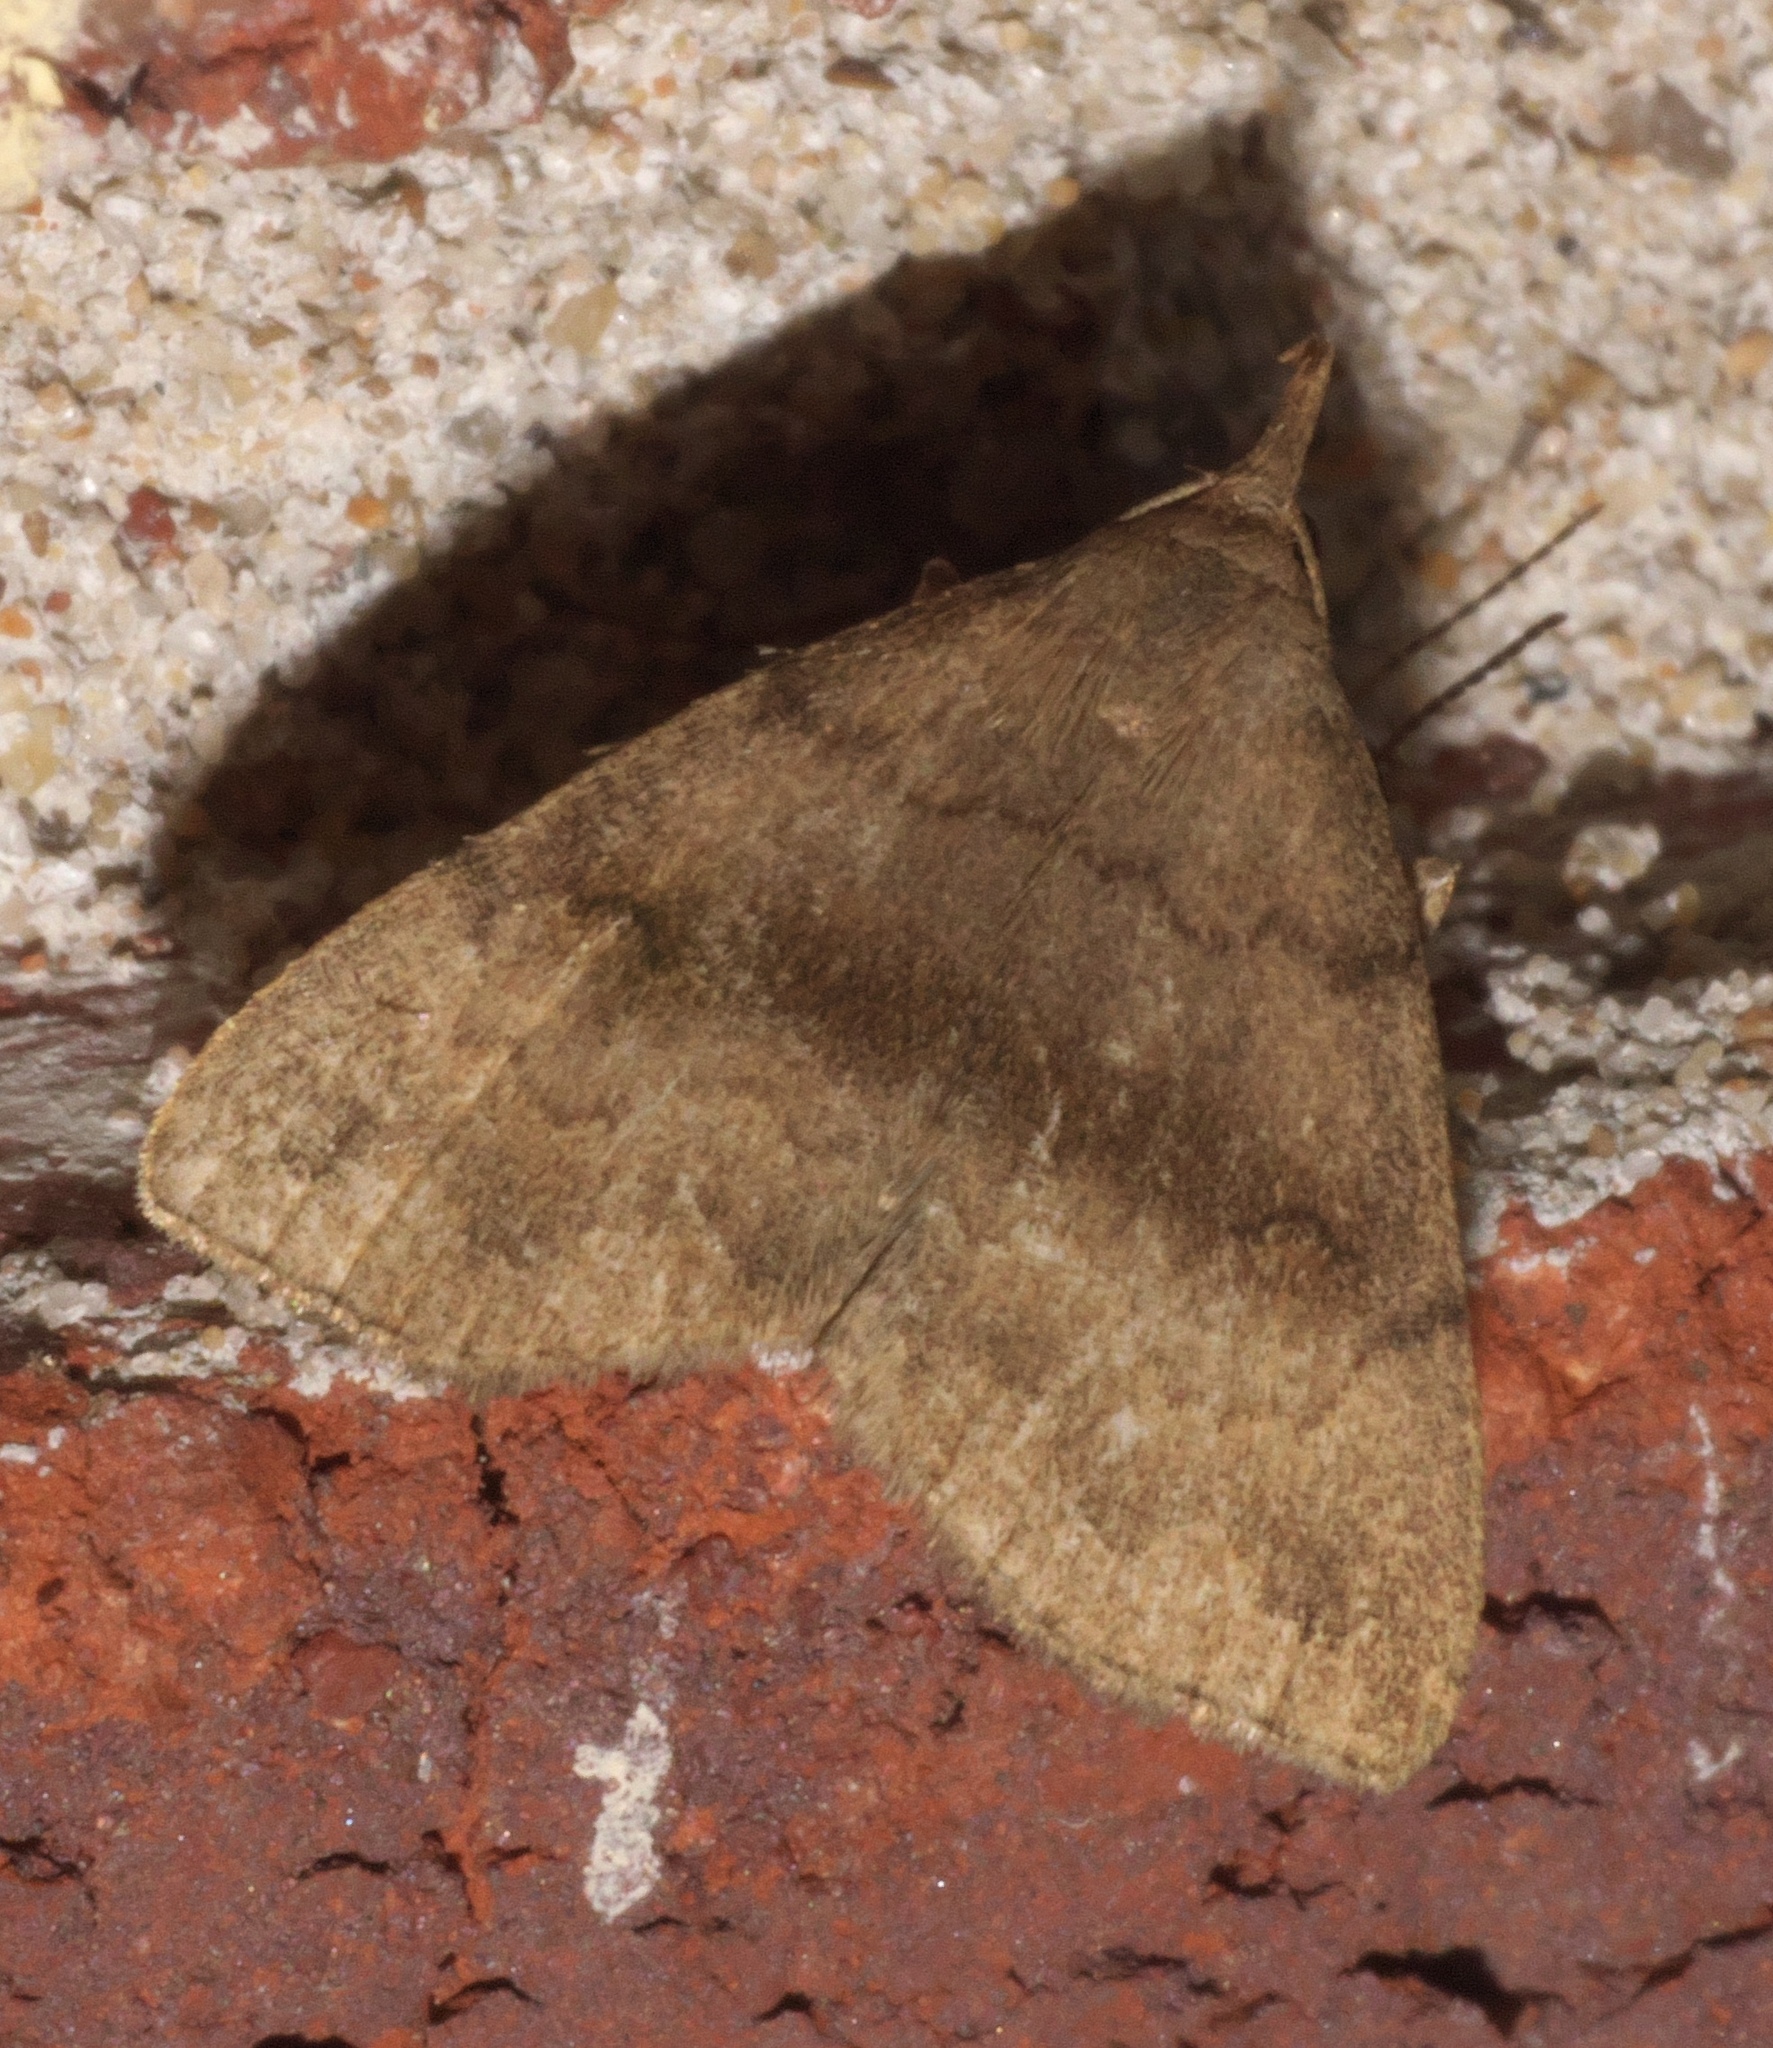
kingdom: Animalia
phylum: Arthropoda
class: Insecta
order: Lepidoptera
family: Erebidae
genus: Phalaenostola
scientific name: Phalaenostola eumelusalis
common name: Dark phalaenostola moth
